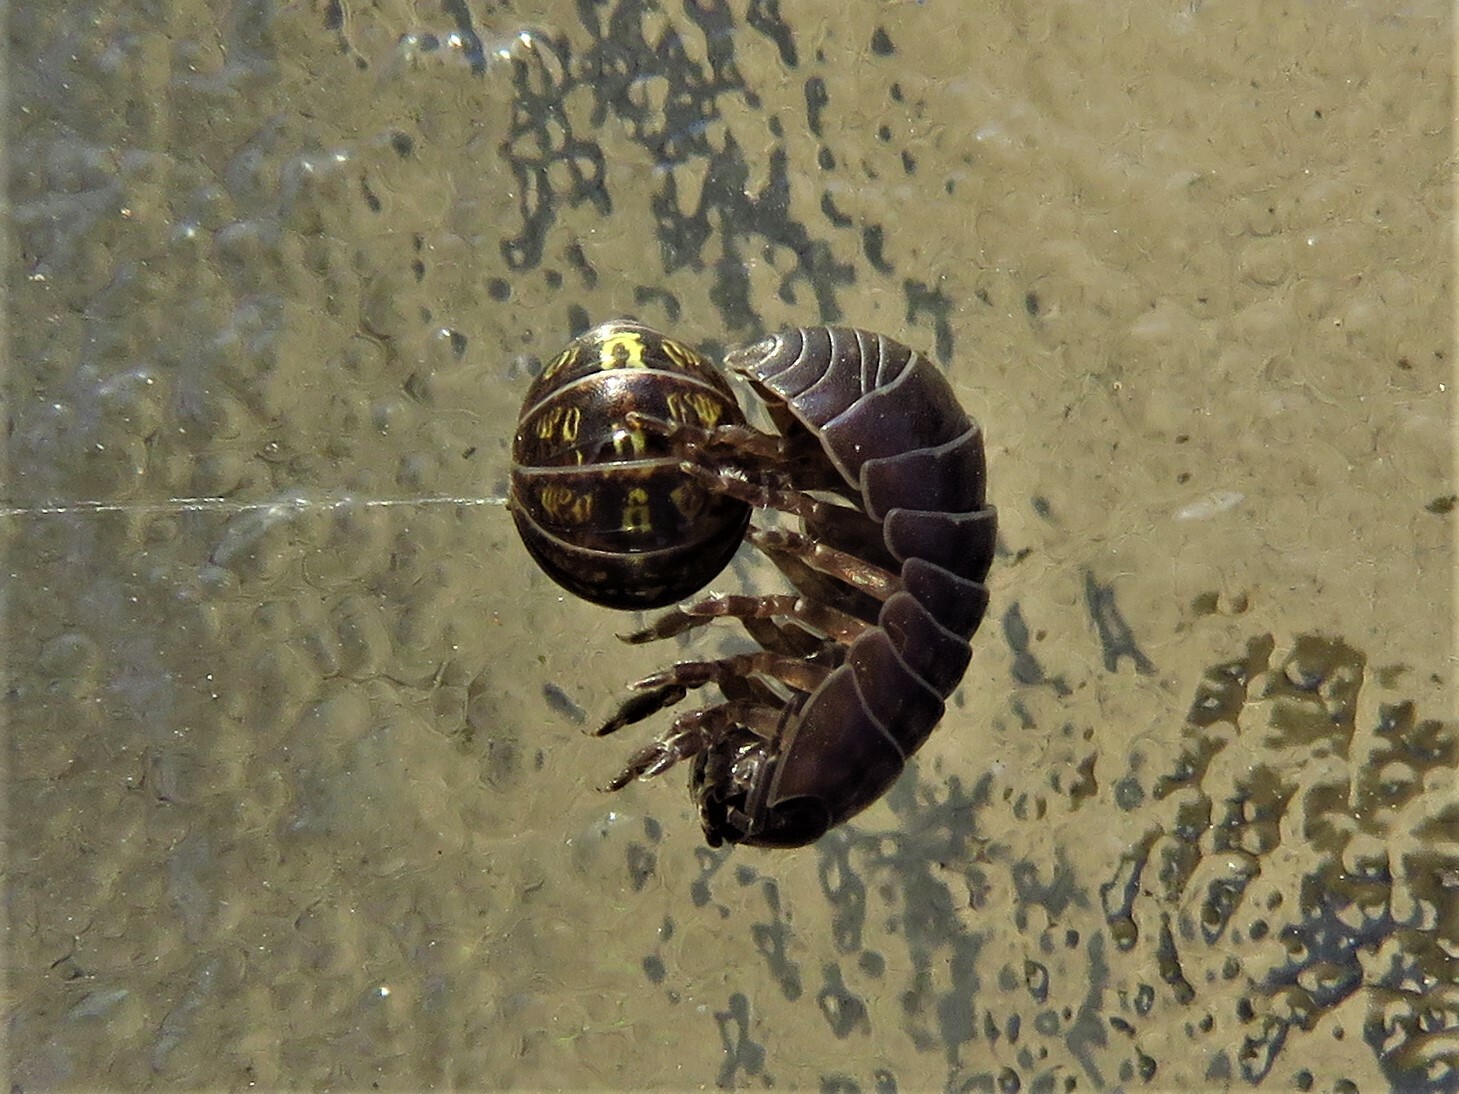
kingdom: Animalia
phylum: Arthropoda
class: Malacostraca
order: Isopoda
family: Armadillidiidae
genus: Armadillidium
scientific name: Armadillidium vulgare
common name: Common pill woodlouse
